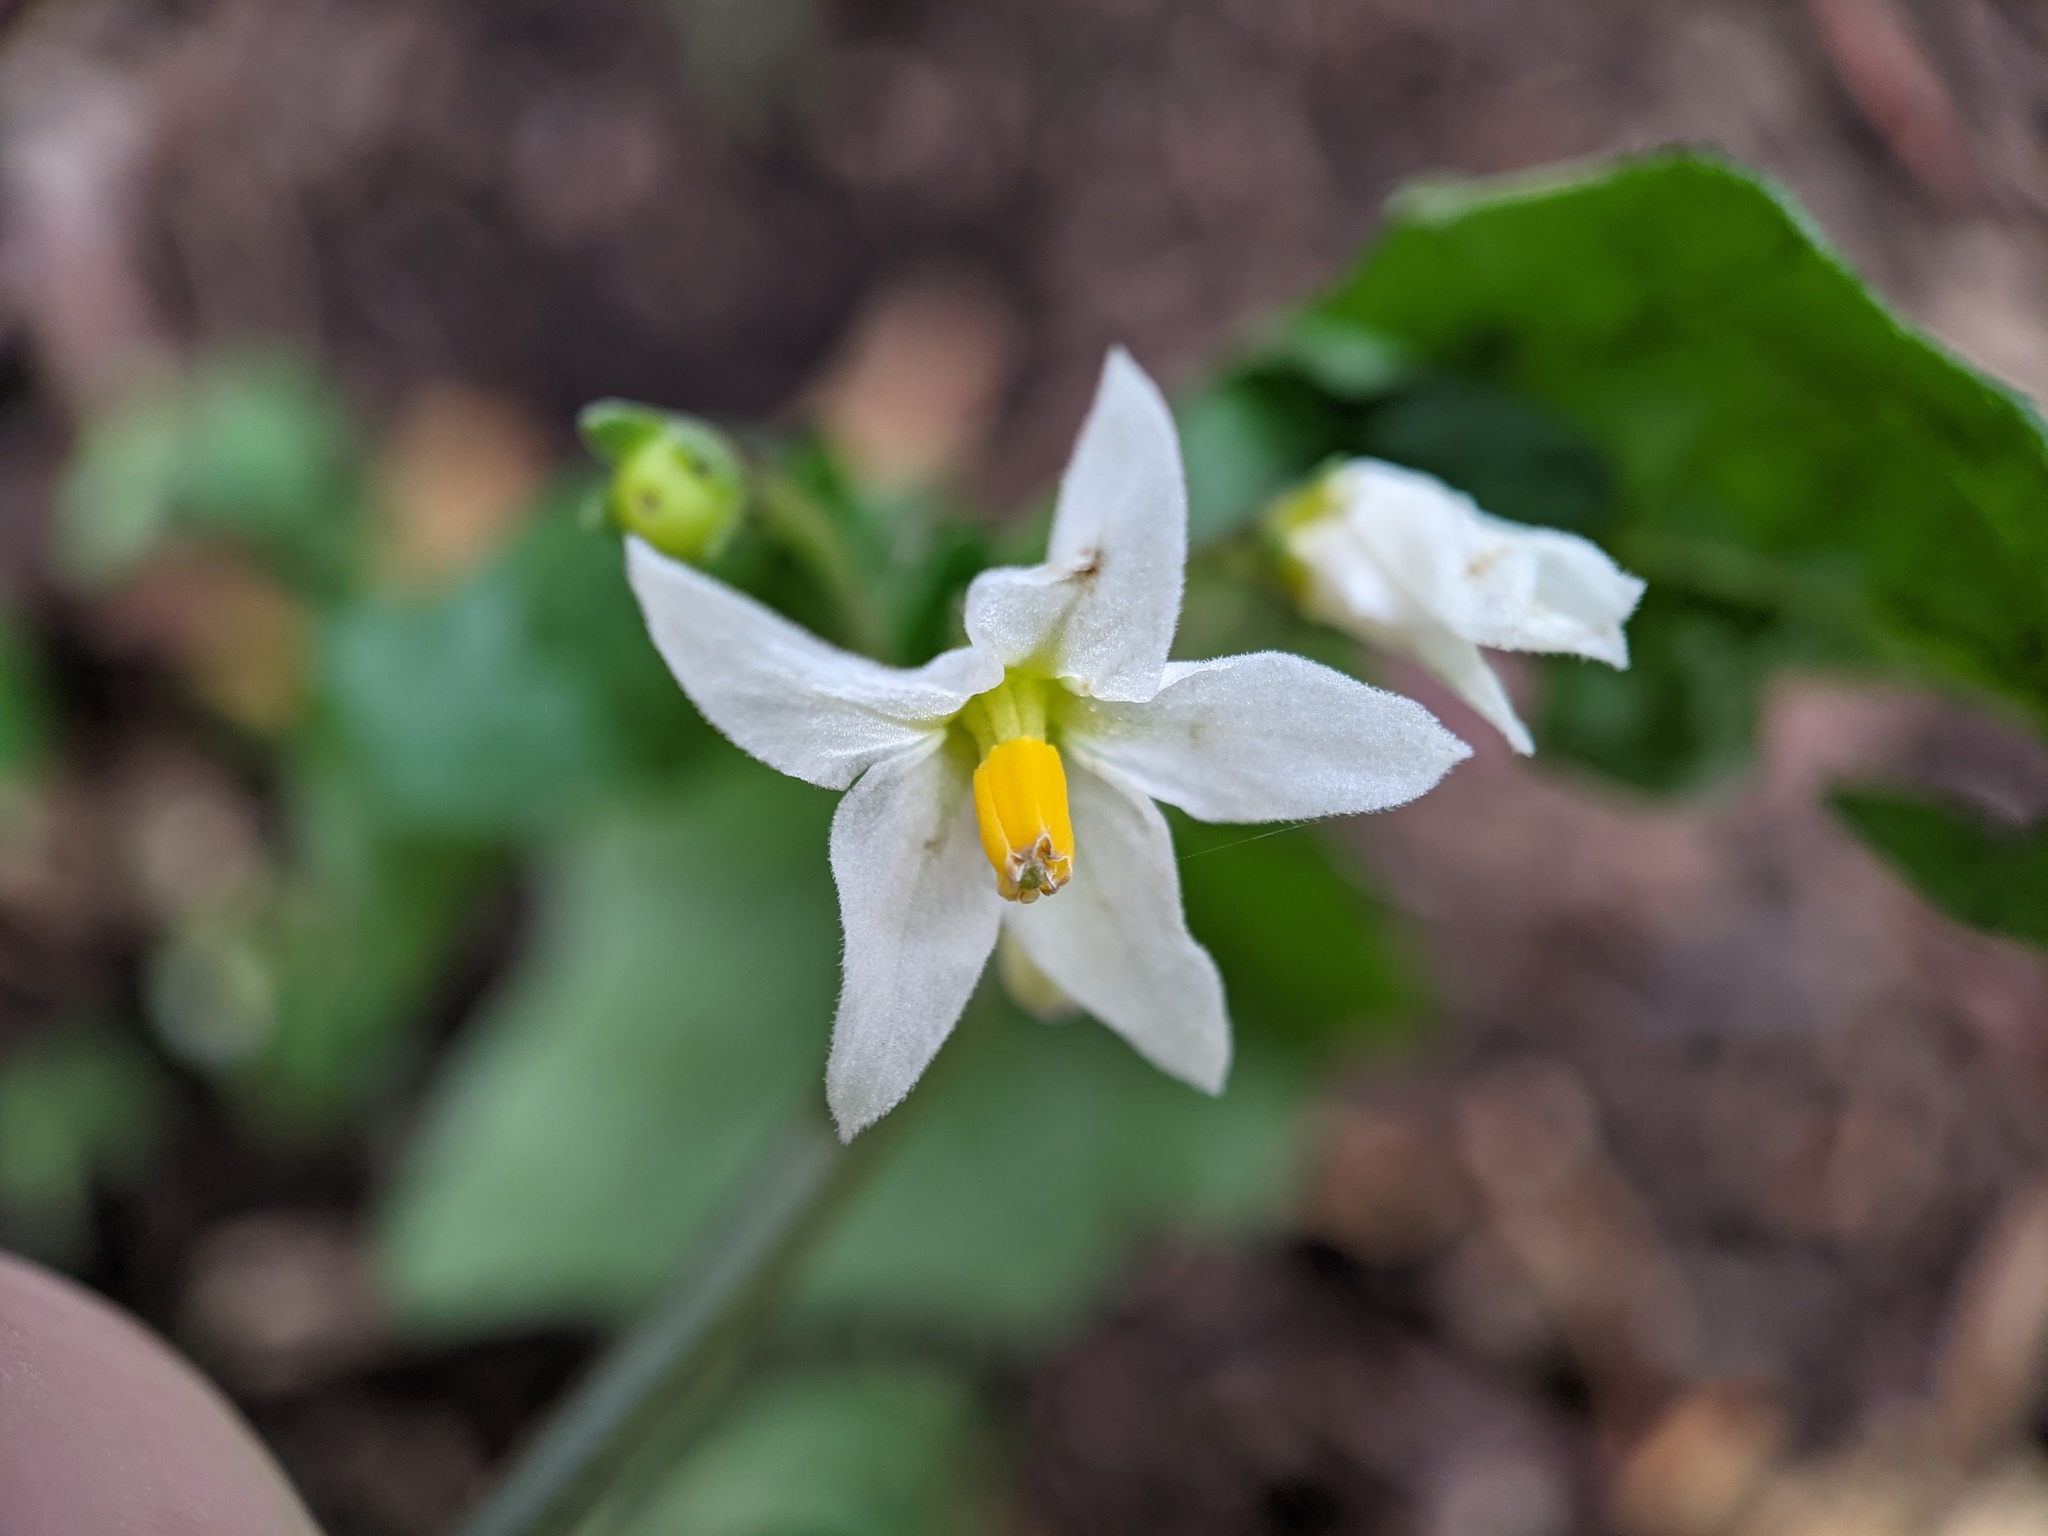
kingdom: Plantae
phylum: Tracheophyta
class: Magnoliopsida
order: Solanales
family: Solanaceae
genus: Solanum
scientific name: Solanum nigrum
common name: Black nightshade
